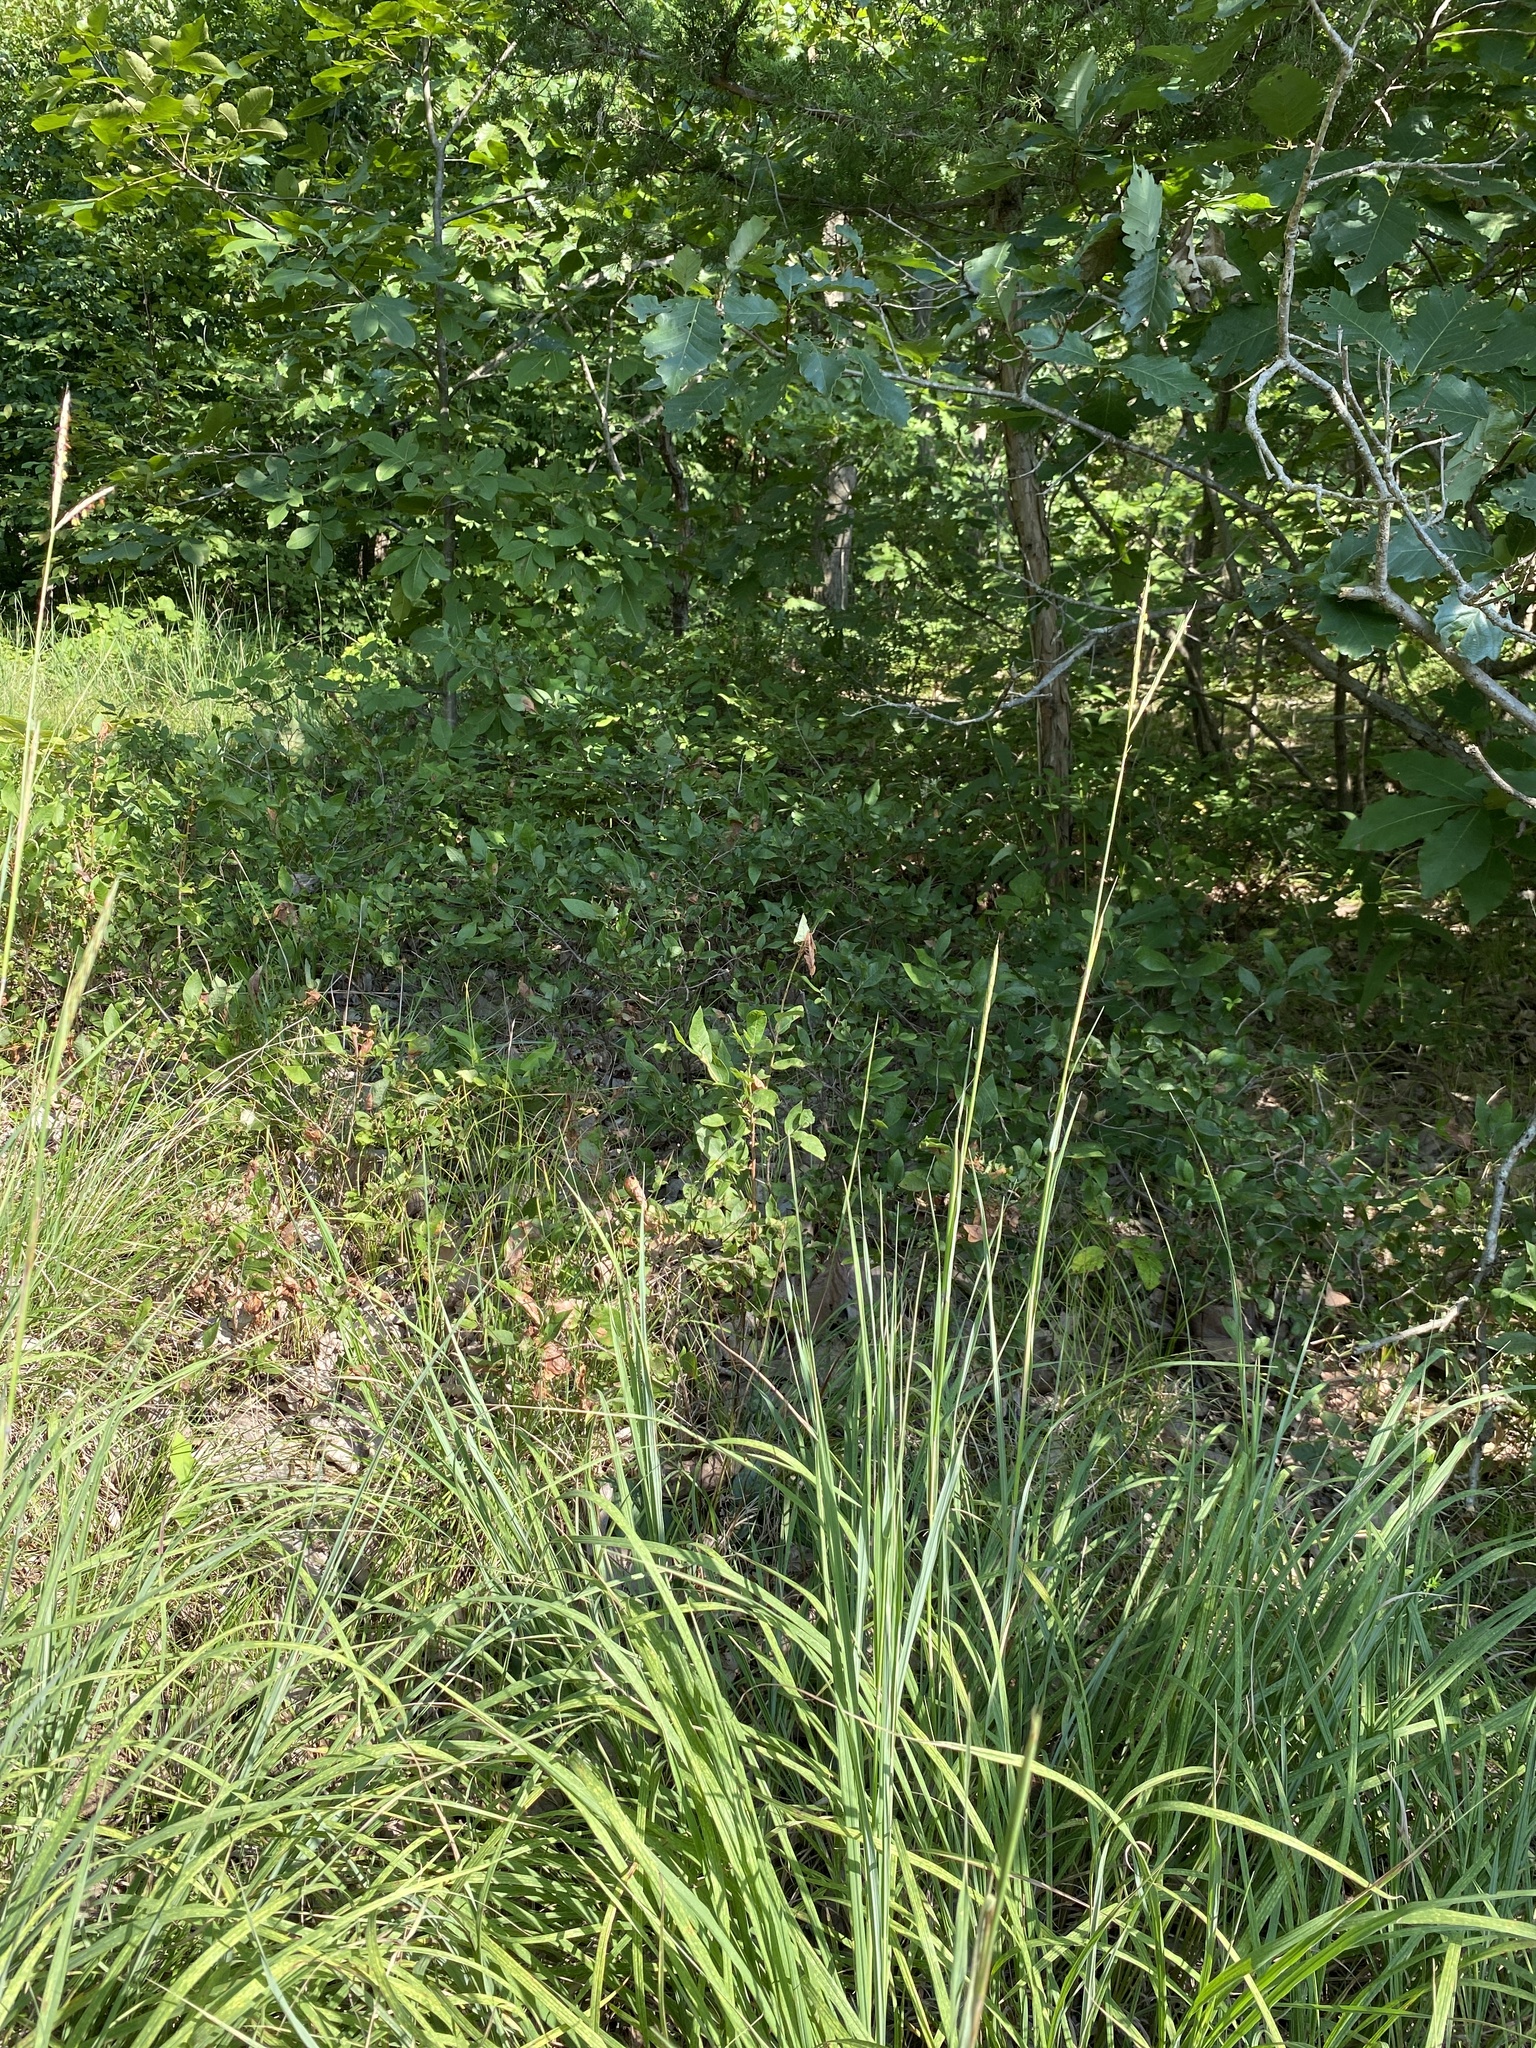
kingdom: Plantae
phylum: Tracheophyta
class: Liliopsida
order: Poales
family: Poaceae
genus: Andropogon
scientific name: Andropogon gerardi
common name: Big bluestem
